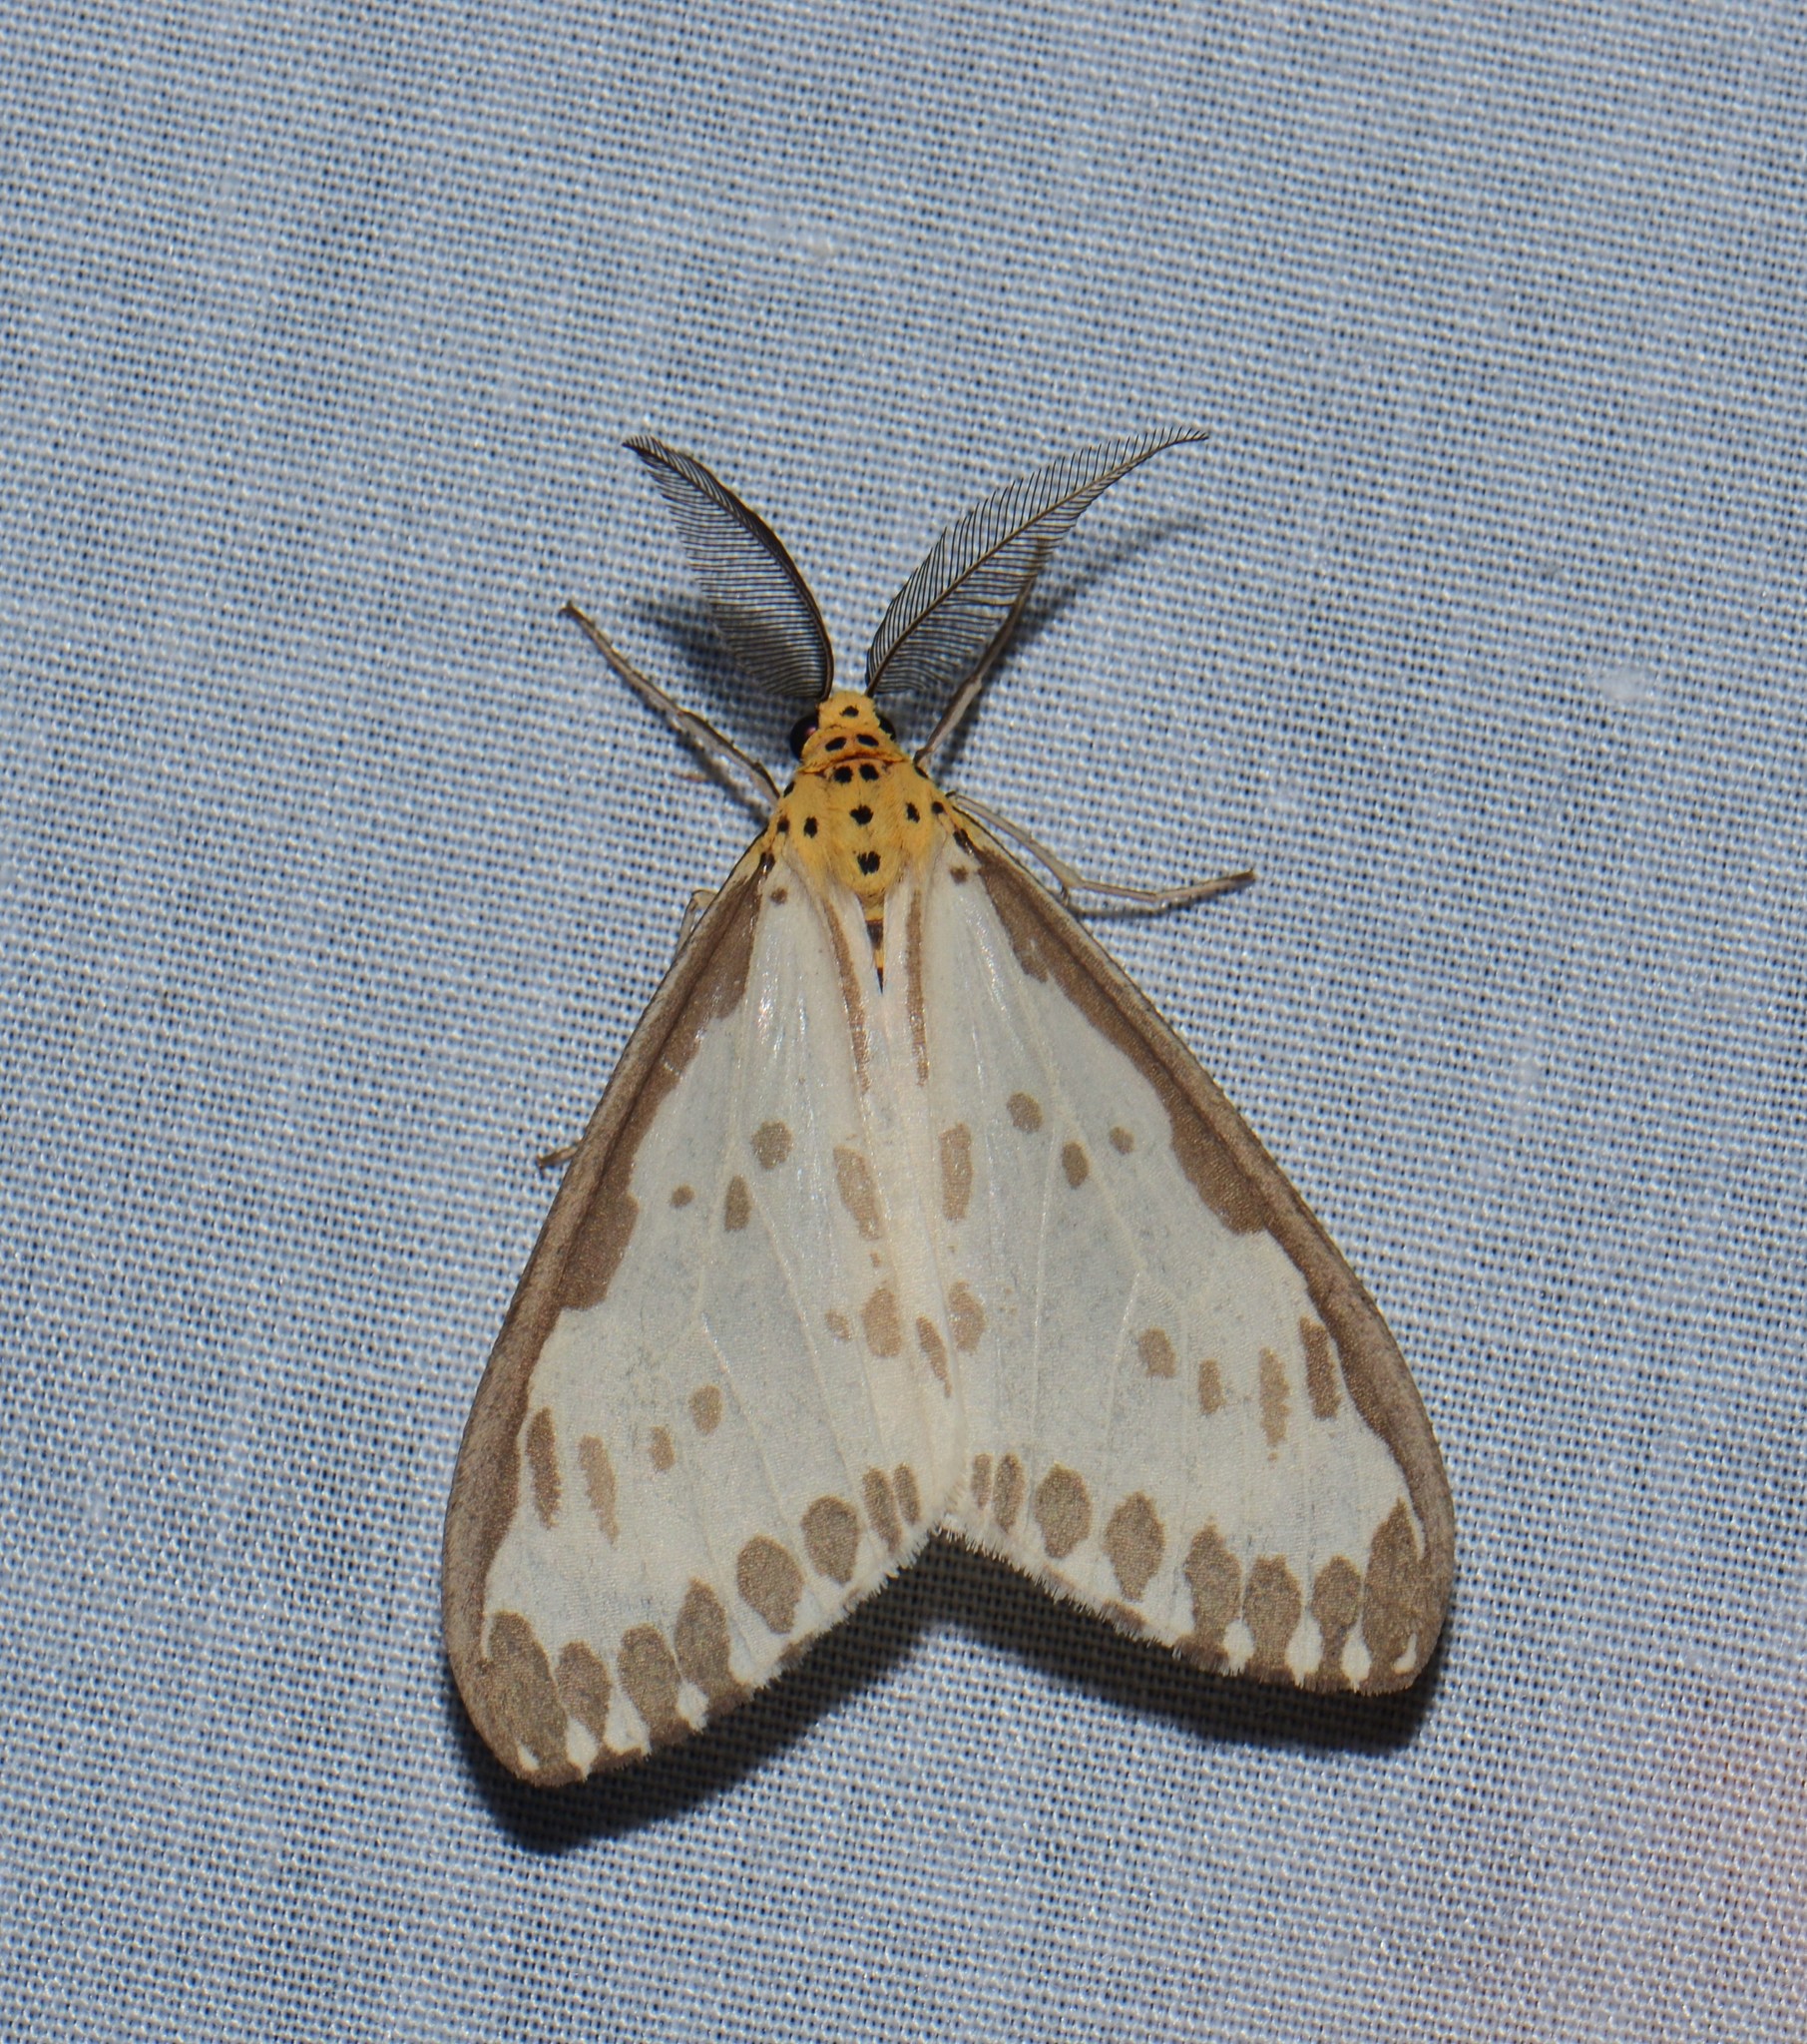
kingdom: Animalia
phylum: Arthropoda
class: Insecta
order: Lepidoptera
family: Erebidae
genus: Nyctemera
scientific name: Nyctemera zerenoides
